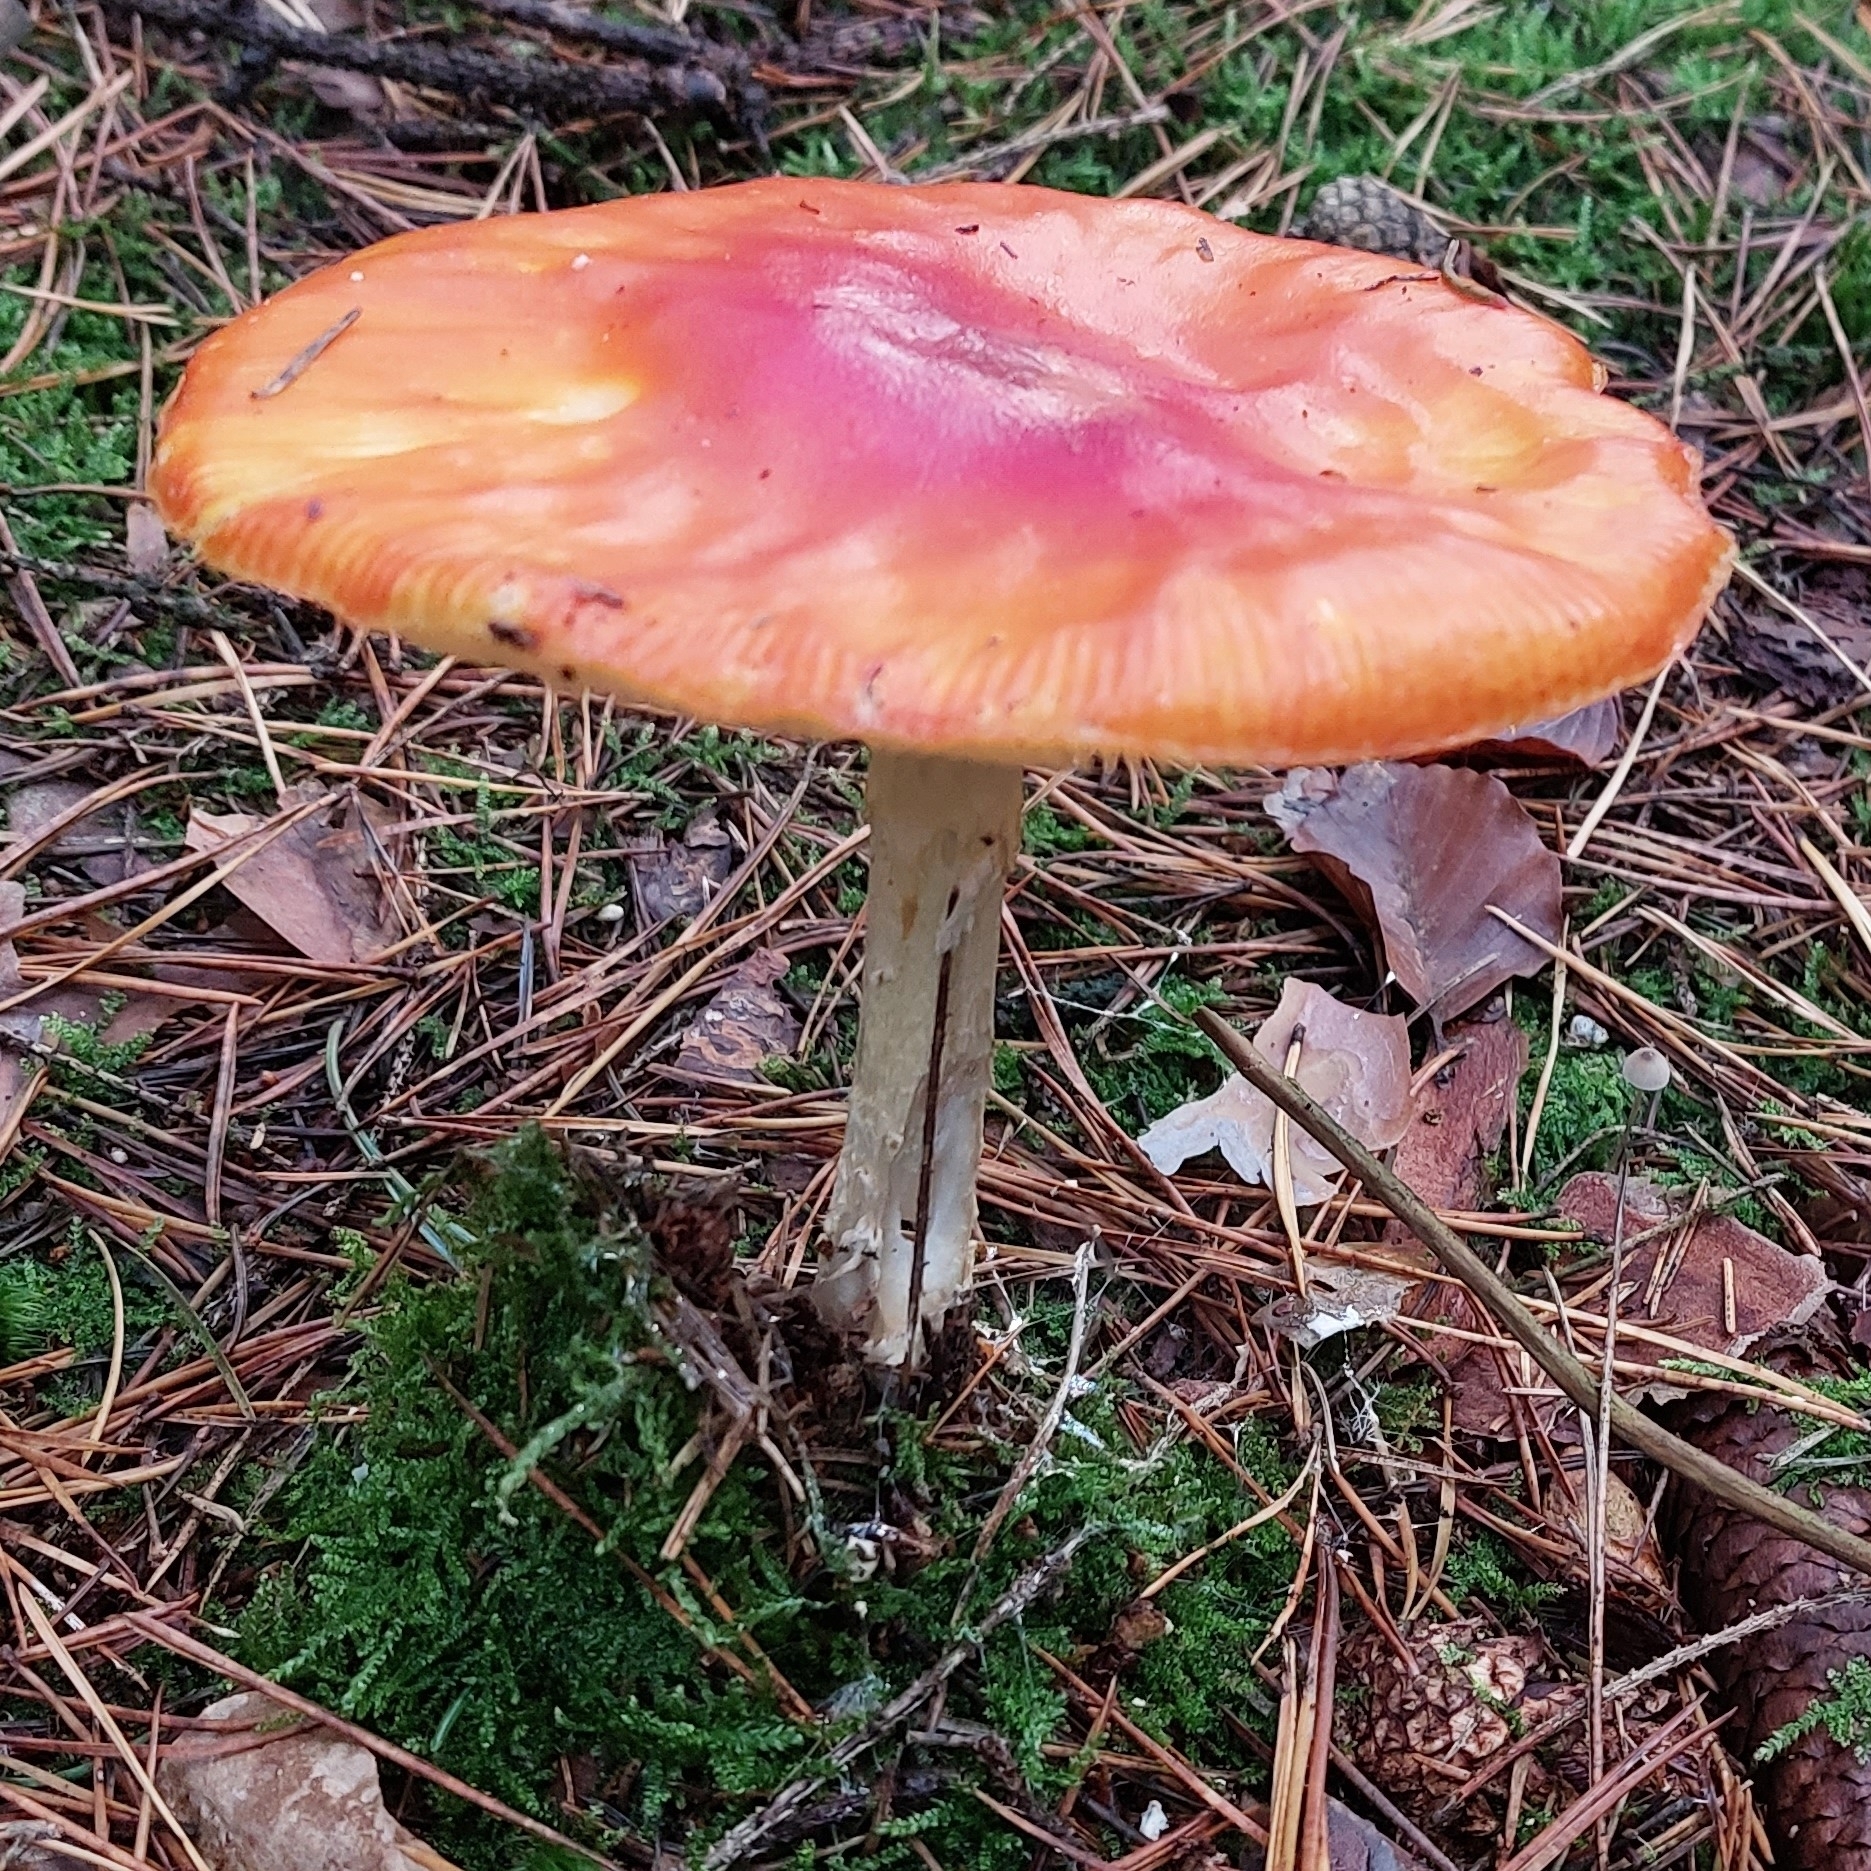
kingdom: Fungi
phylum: Basidiomycota
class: Agaricomycetes
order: Agaricales
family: Amanitaceae
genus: Amanita
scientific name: Amanita muscaria
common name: Fly agaric
